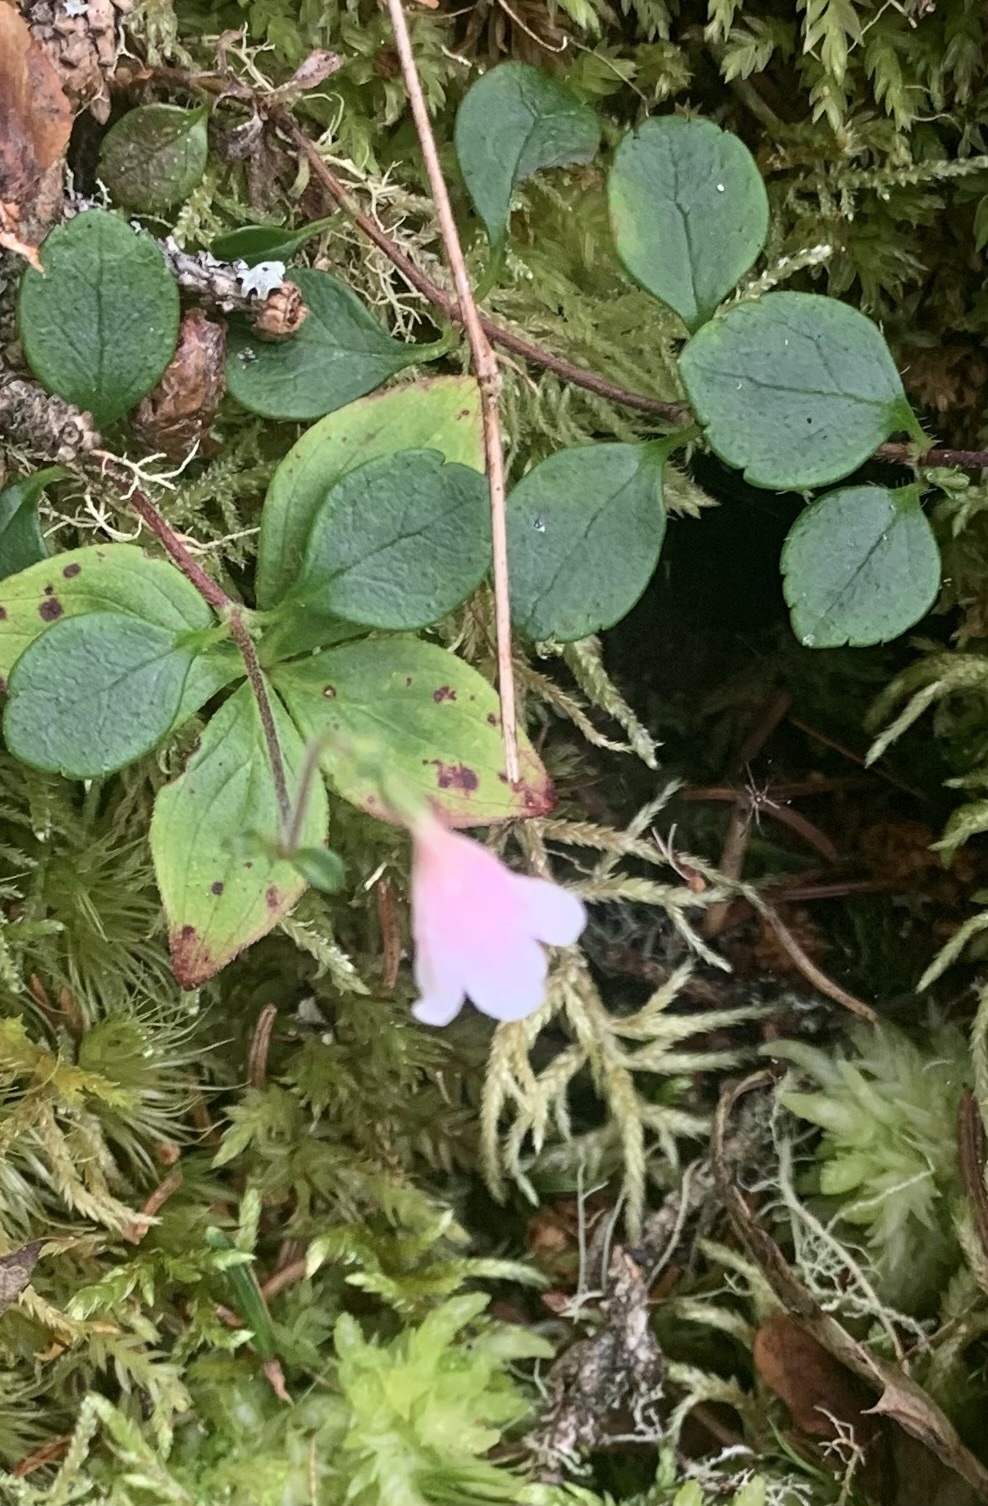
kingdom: Plantae
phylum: Tracheophyta
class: Magnoliopsida
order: Dipsacales
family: Caprifoliaceae
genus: Linnaea
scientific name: Linnaea borealis
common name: Twinflower
